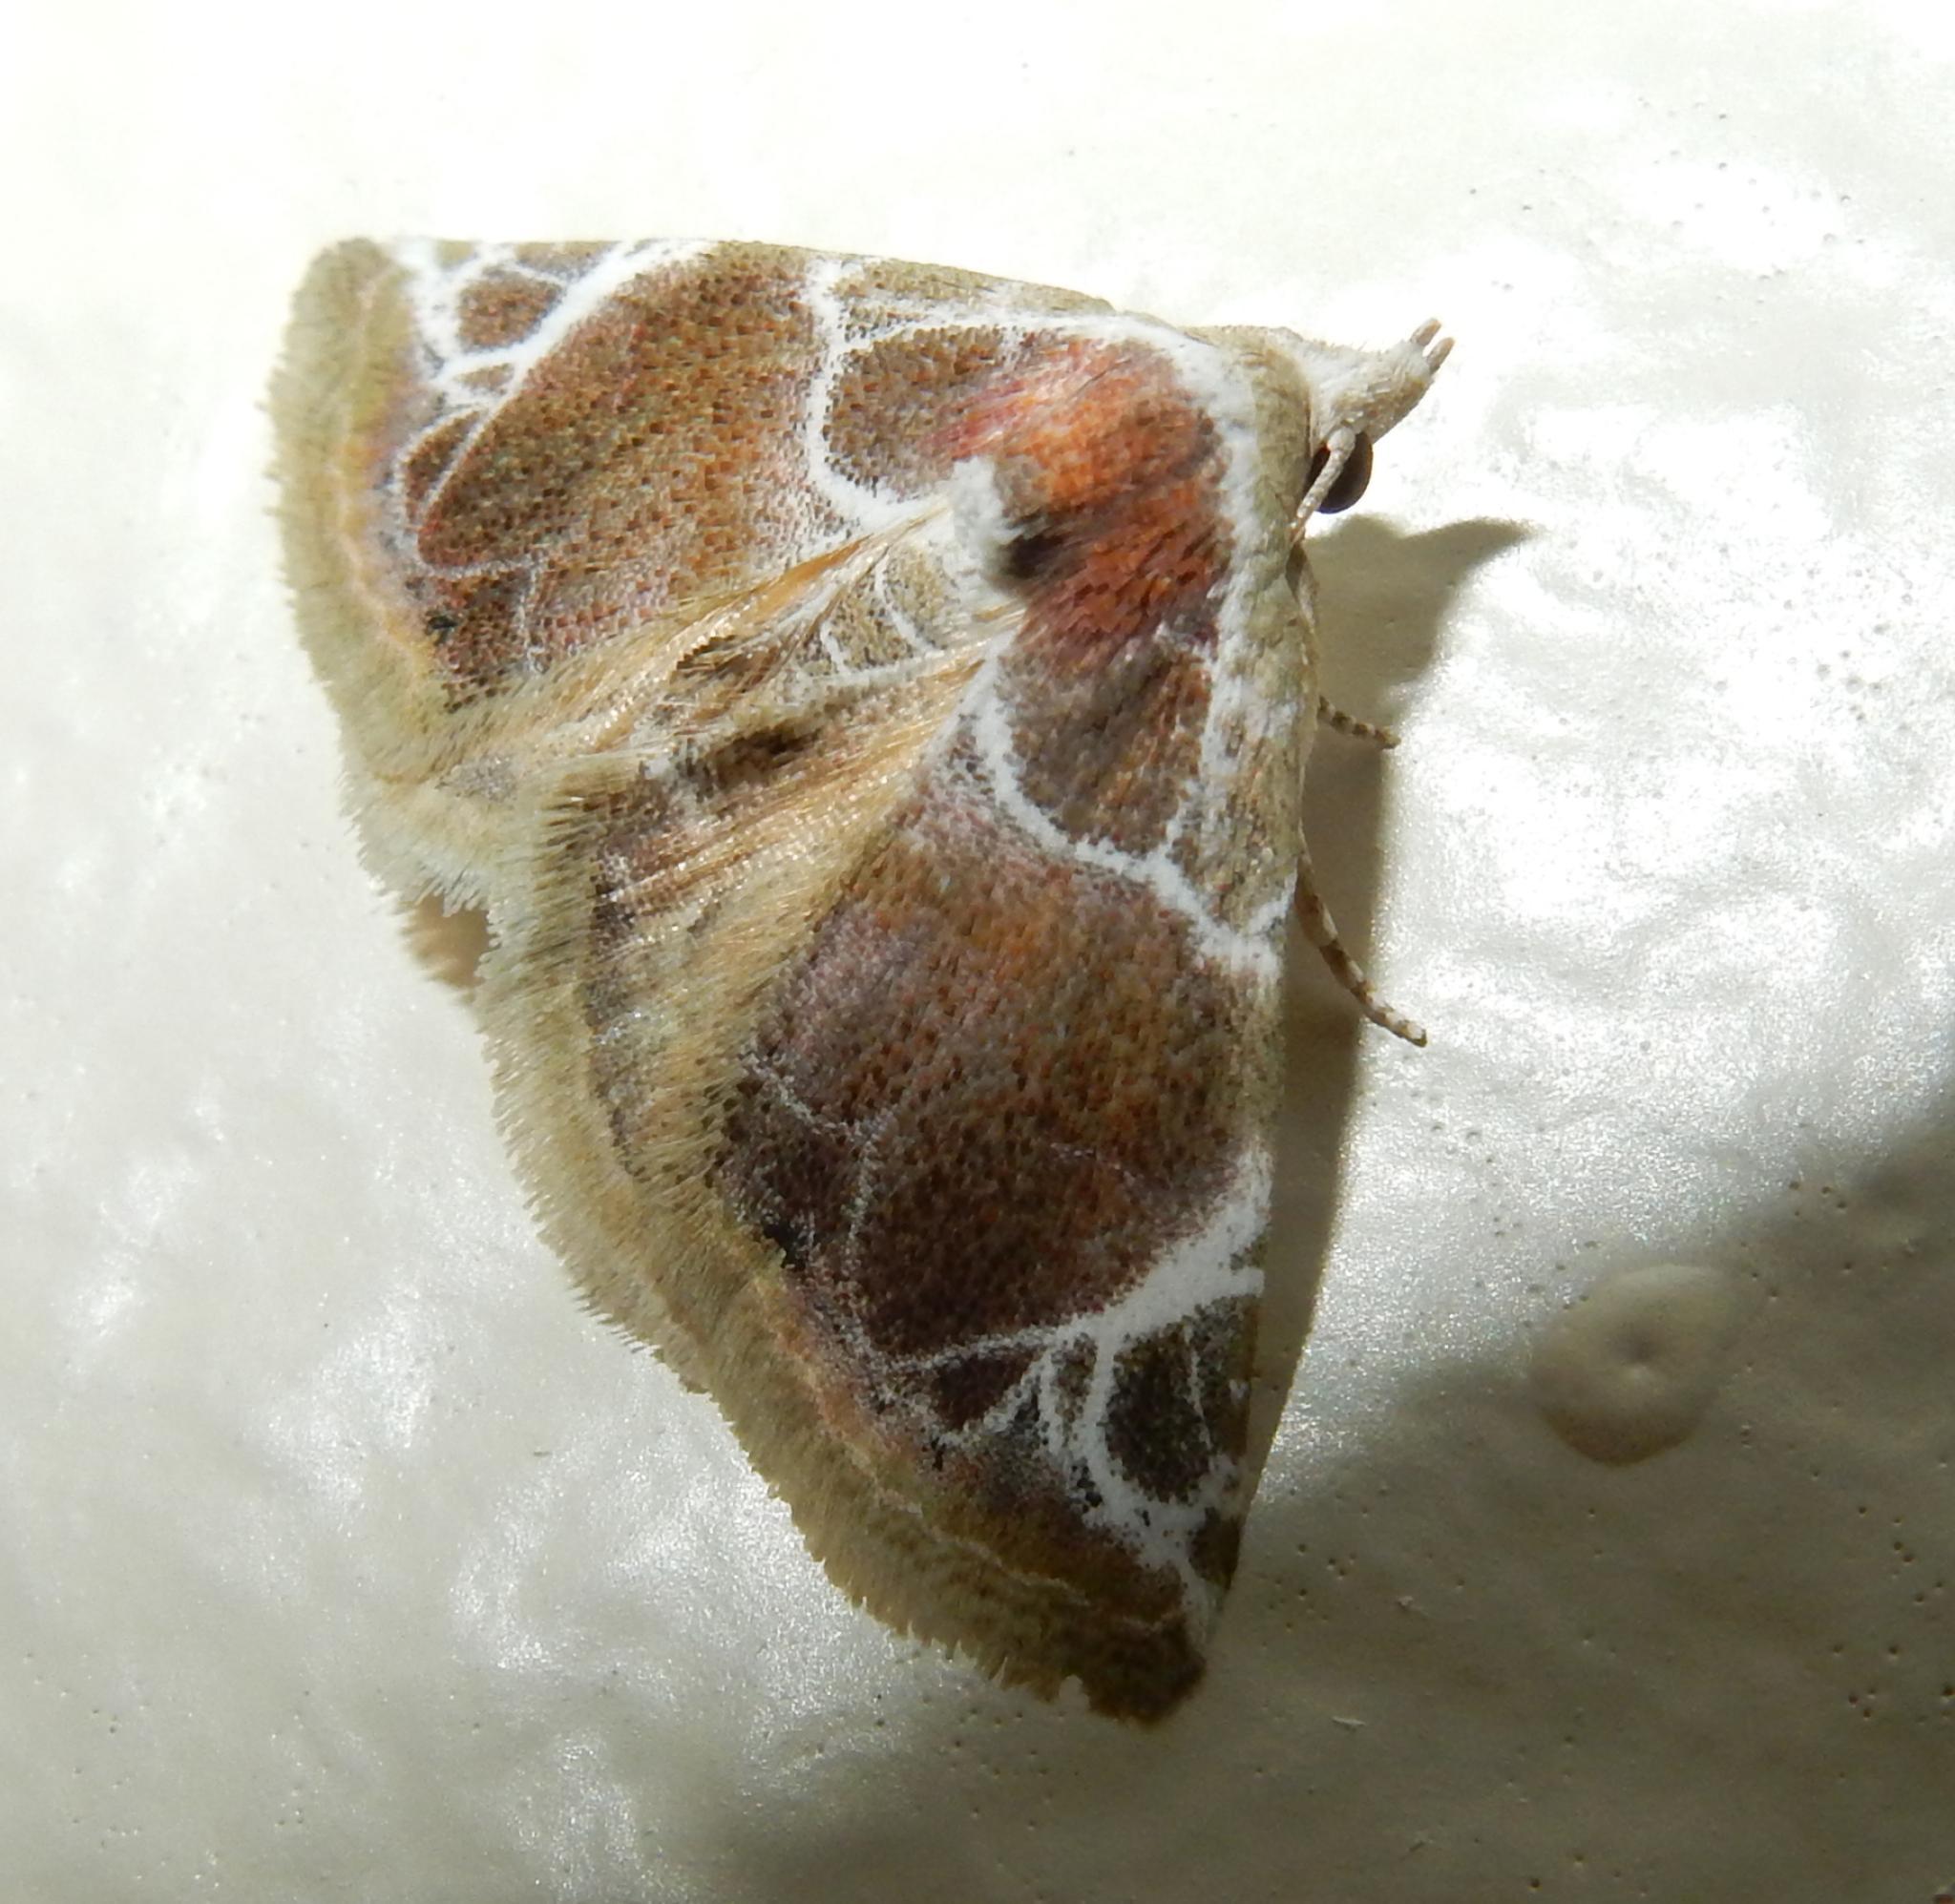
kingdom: Animalia
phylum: Arthropoda
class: Insecta
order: Lepidoptera
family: Noctuidae
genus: Eublemma
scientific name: Eublemma costimacula
